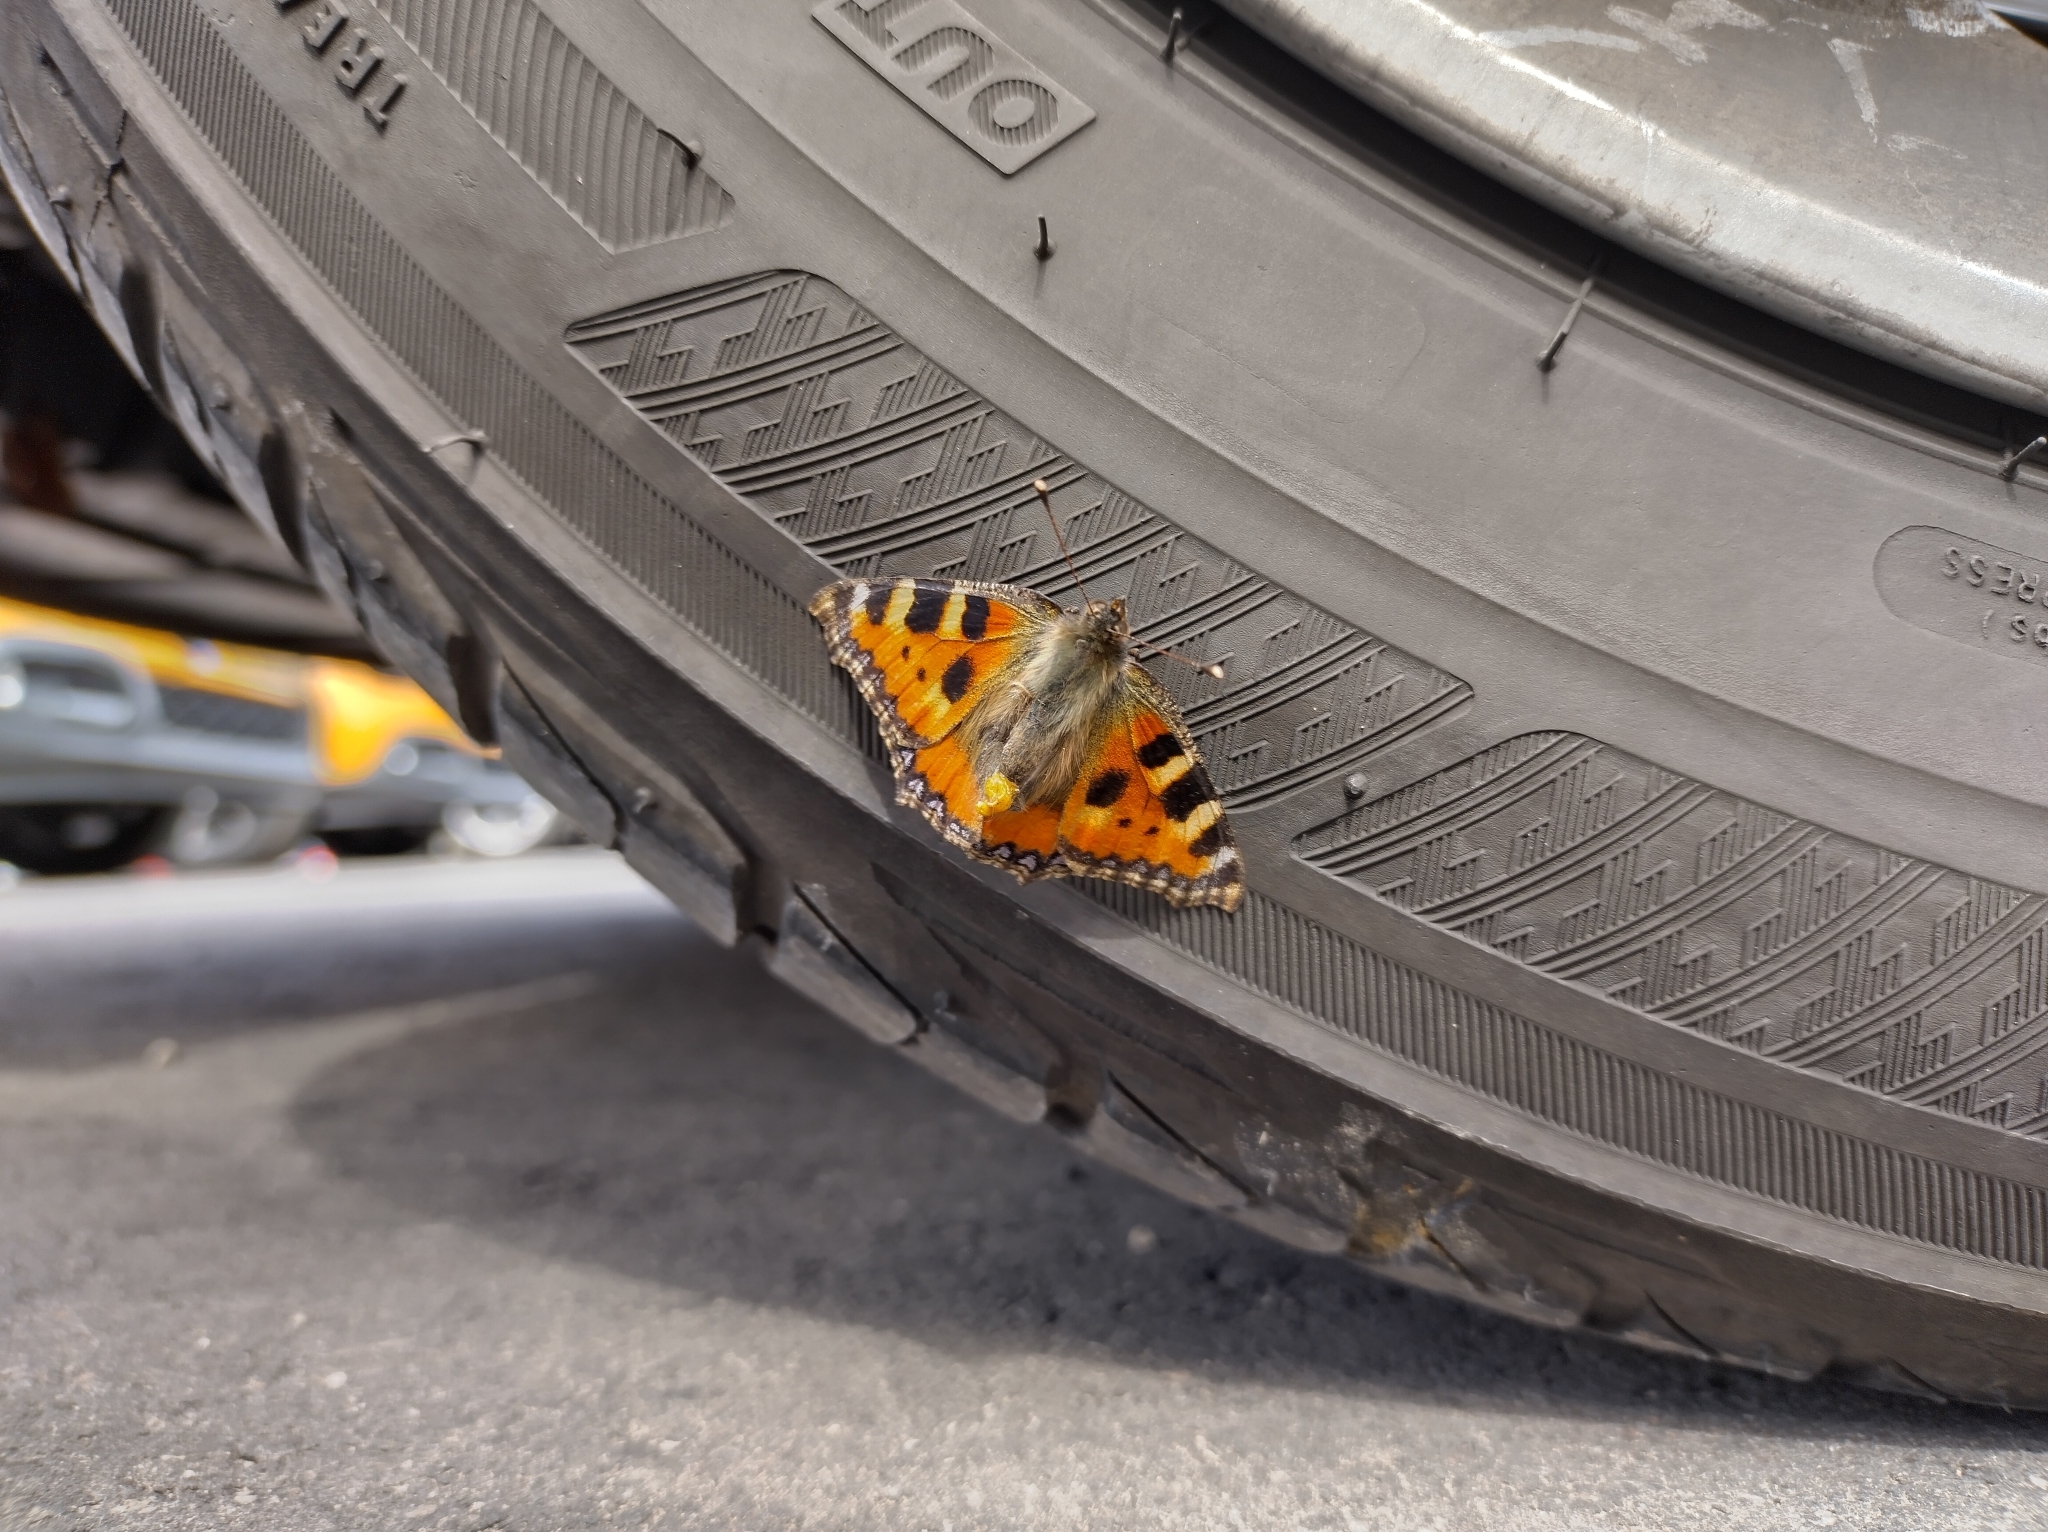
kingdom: Animalia
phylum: Arthropoda
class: Insecta
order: Lepidoptera
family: Nymphalidae
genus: Aglais
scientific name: Aglais urticae
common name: Small tortoiseshell
